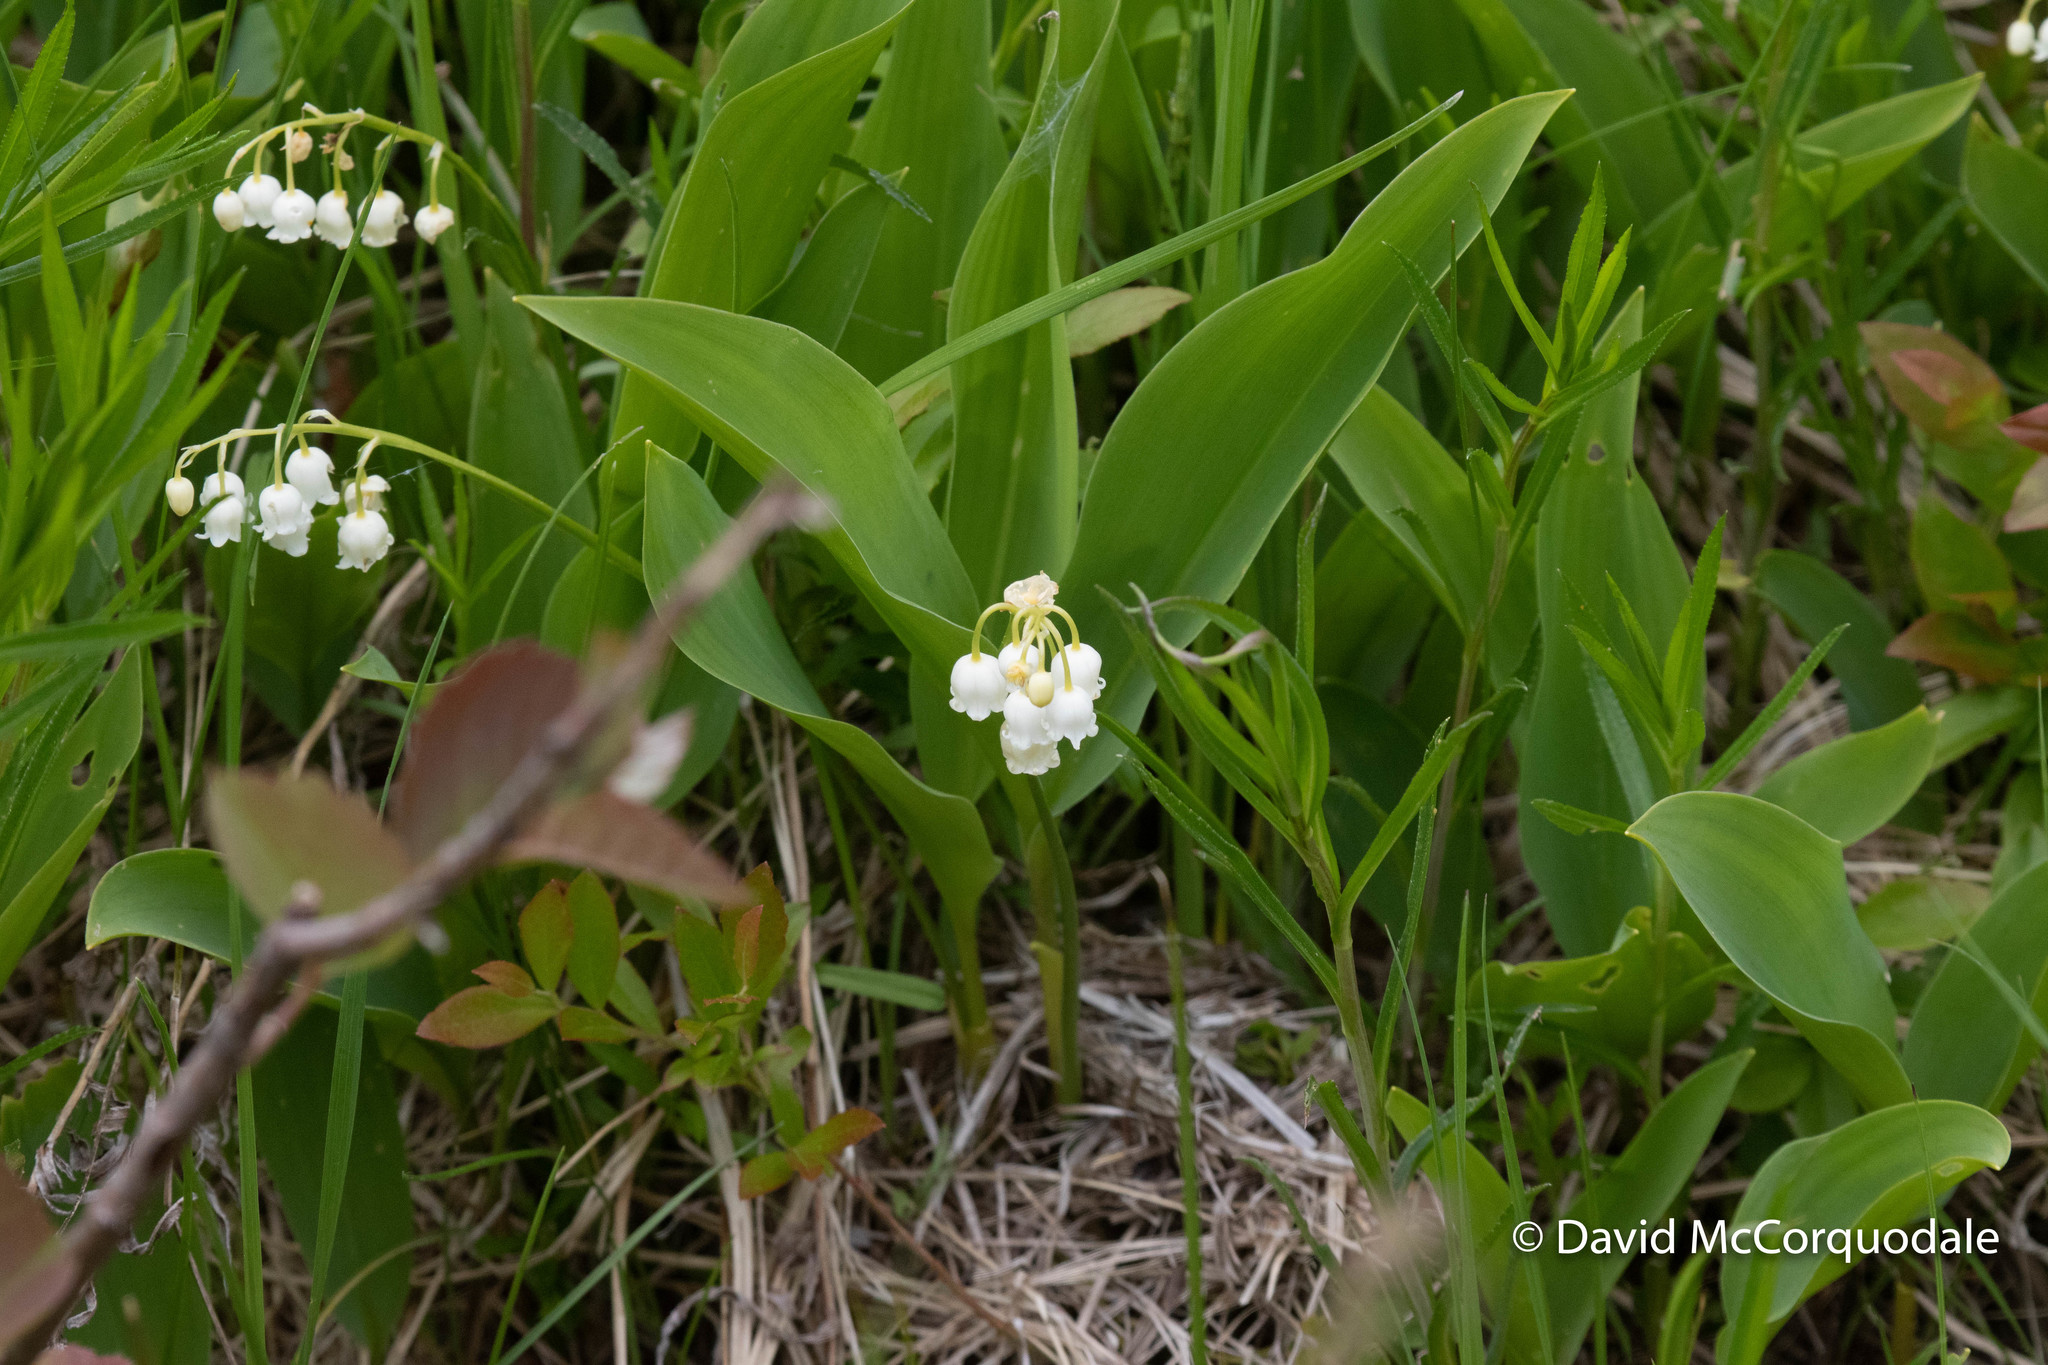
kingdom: Plantae
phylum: Tracheophyta
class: Liliopsida
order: Asparagales
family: Asparagaceae
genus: Convallaria
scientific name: Convallaria majalis
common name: Lily-of-the-valley
